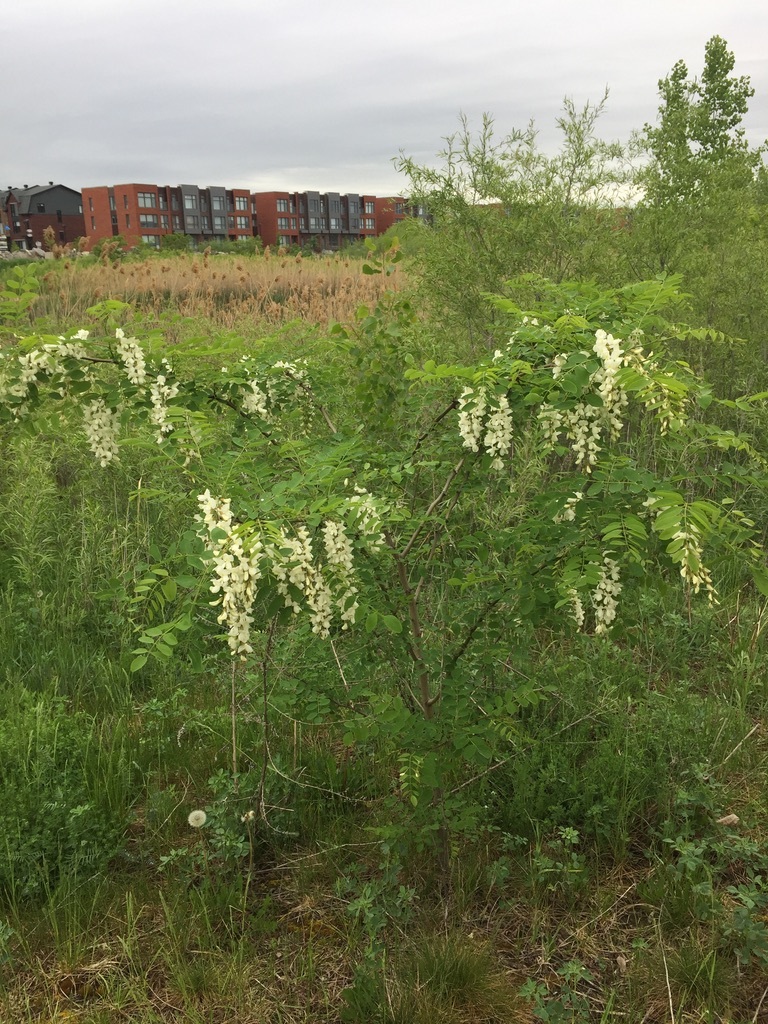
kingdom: Plantae
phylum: Tracheophyta
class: Magnoliopsida
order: Fabales
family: Fabaceae
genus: Robinia
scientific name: Robinia pseudoacacia
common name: Black locust
